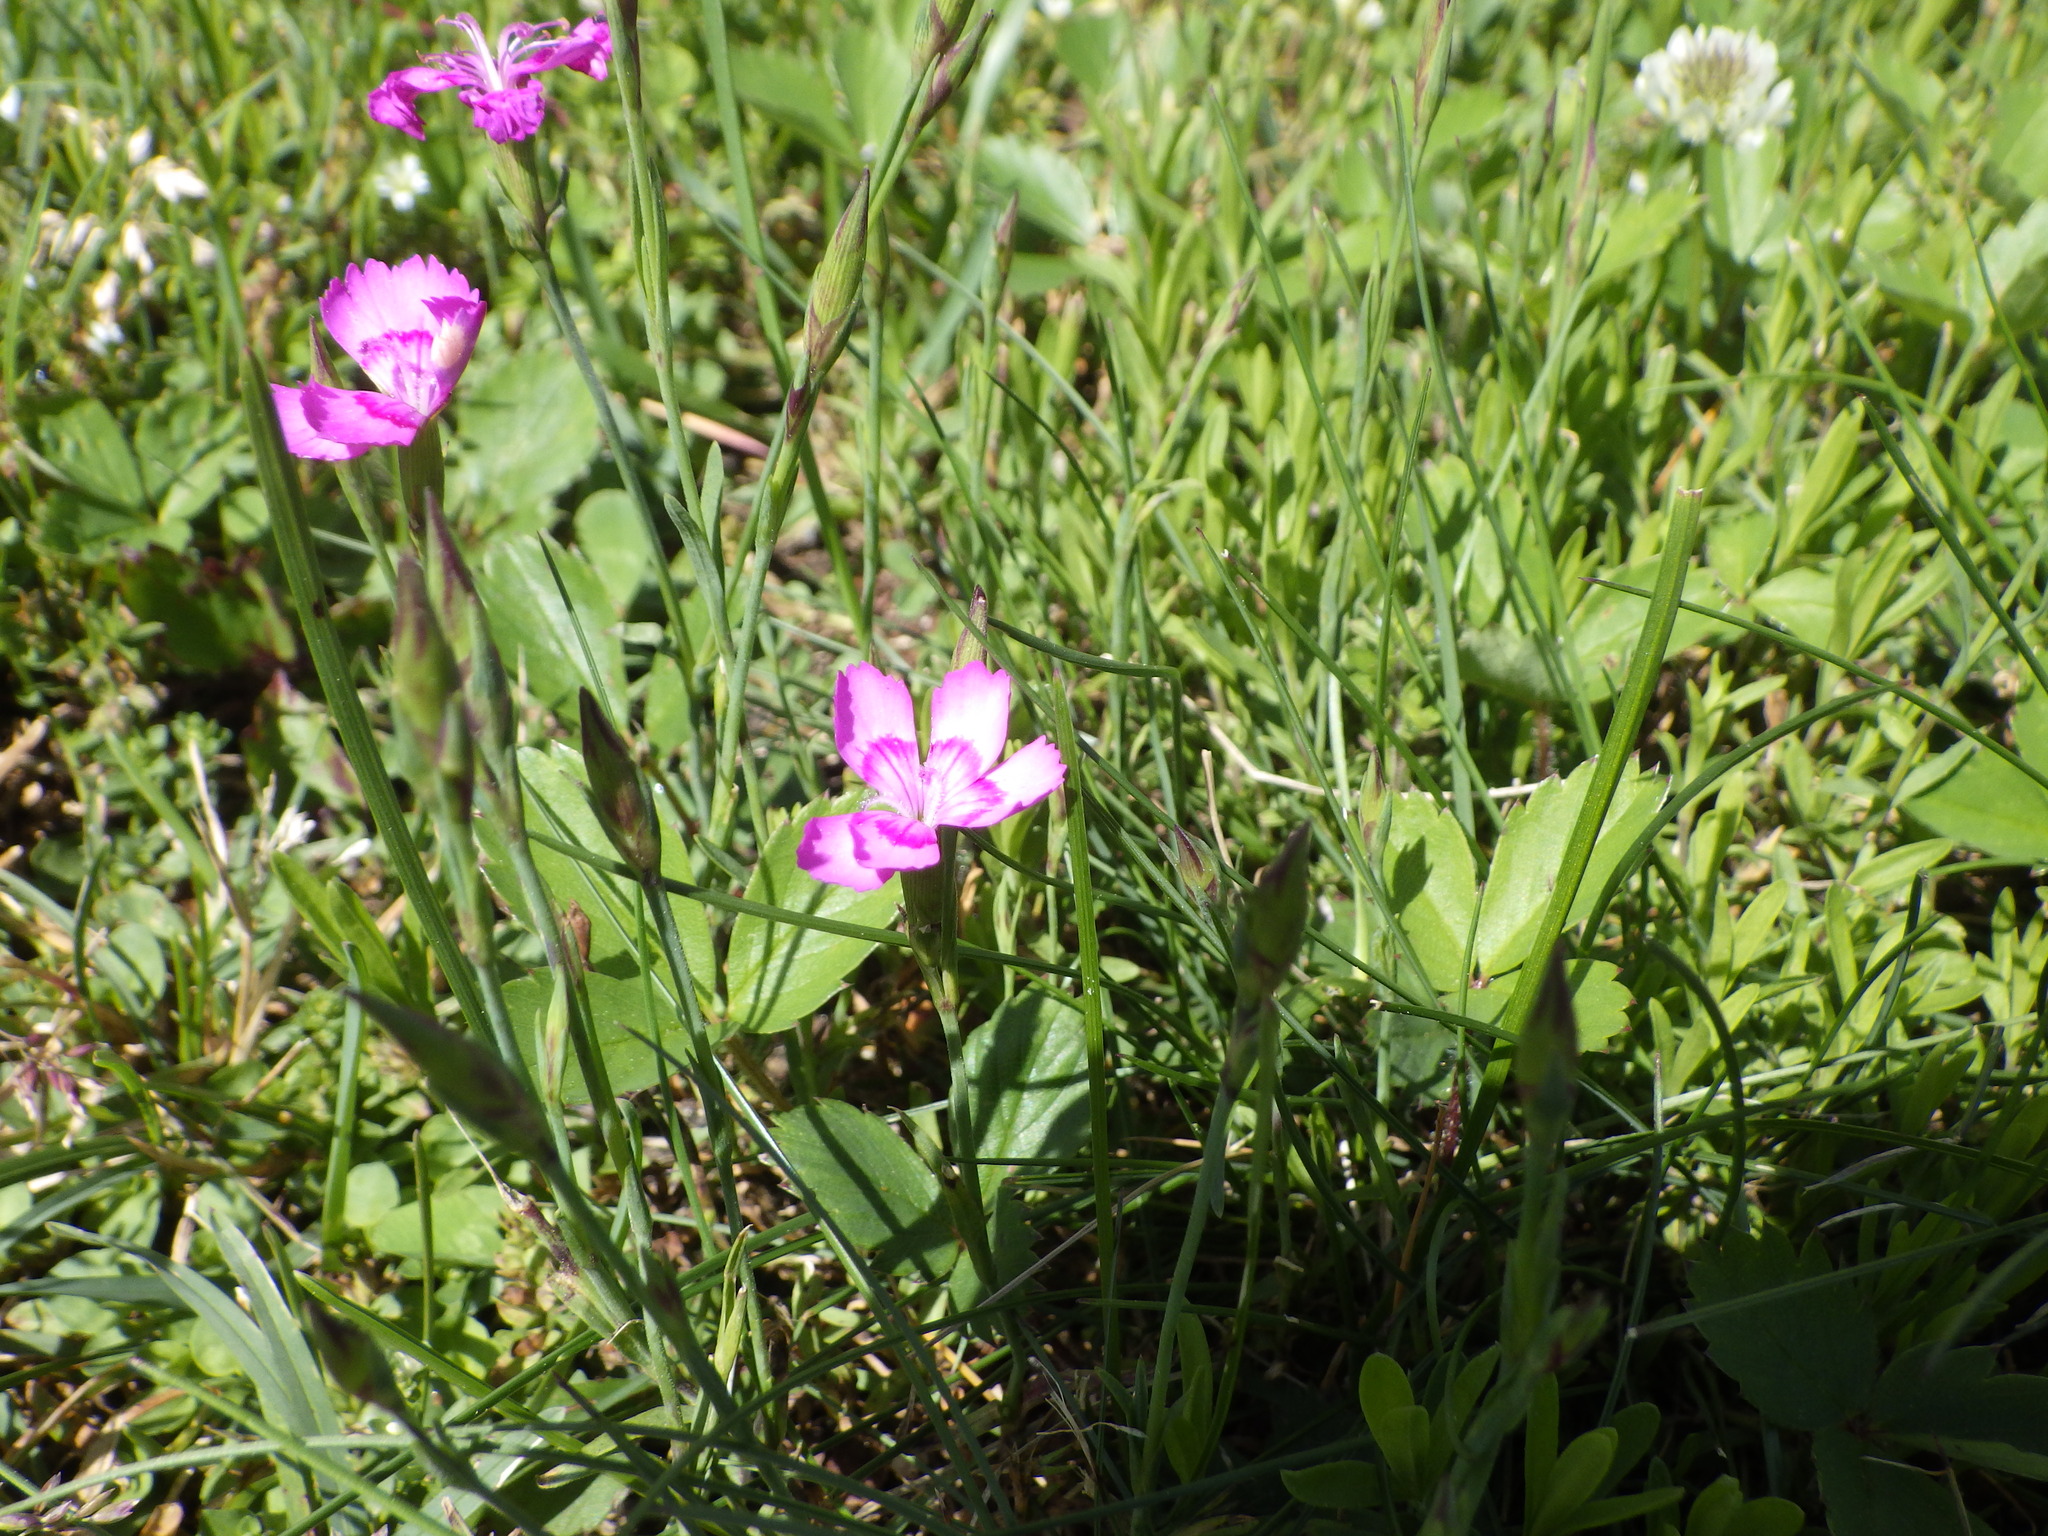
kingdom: Plantae
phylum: Tracheophyta
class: Magnoliopsida
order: Caryophyllales
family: Caryophyllaceae
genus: Dianthus
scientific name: Dianthus deltoides
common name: Maiden pink
